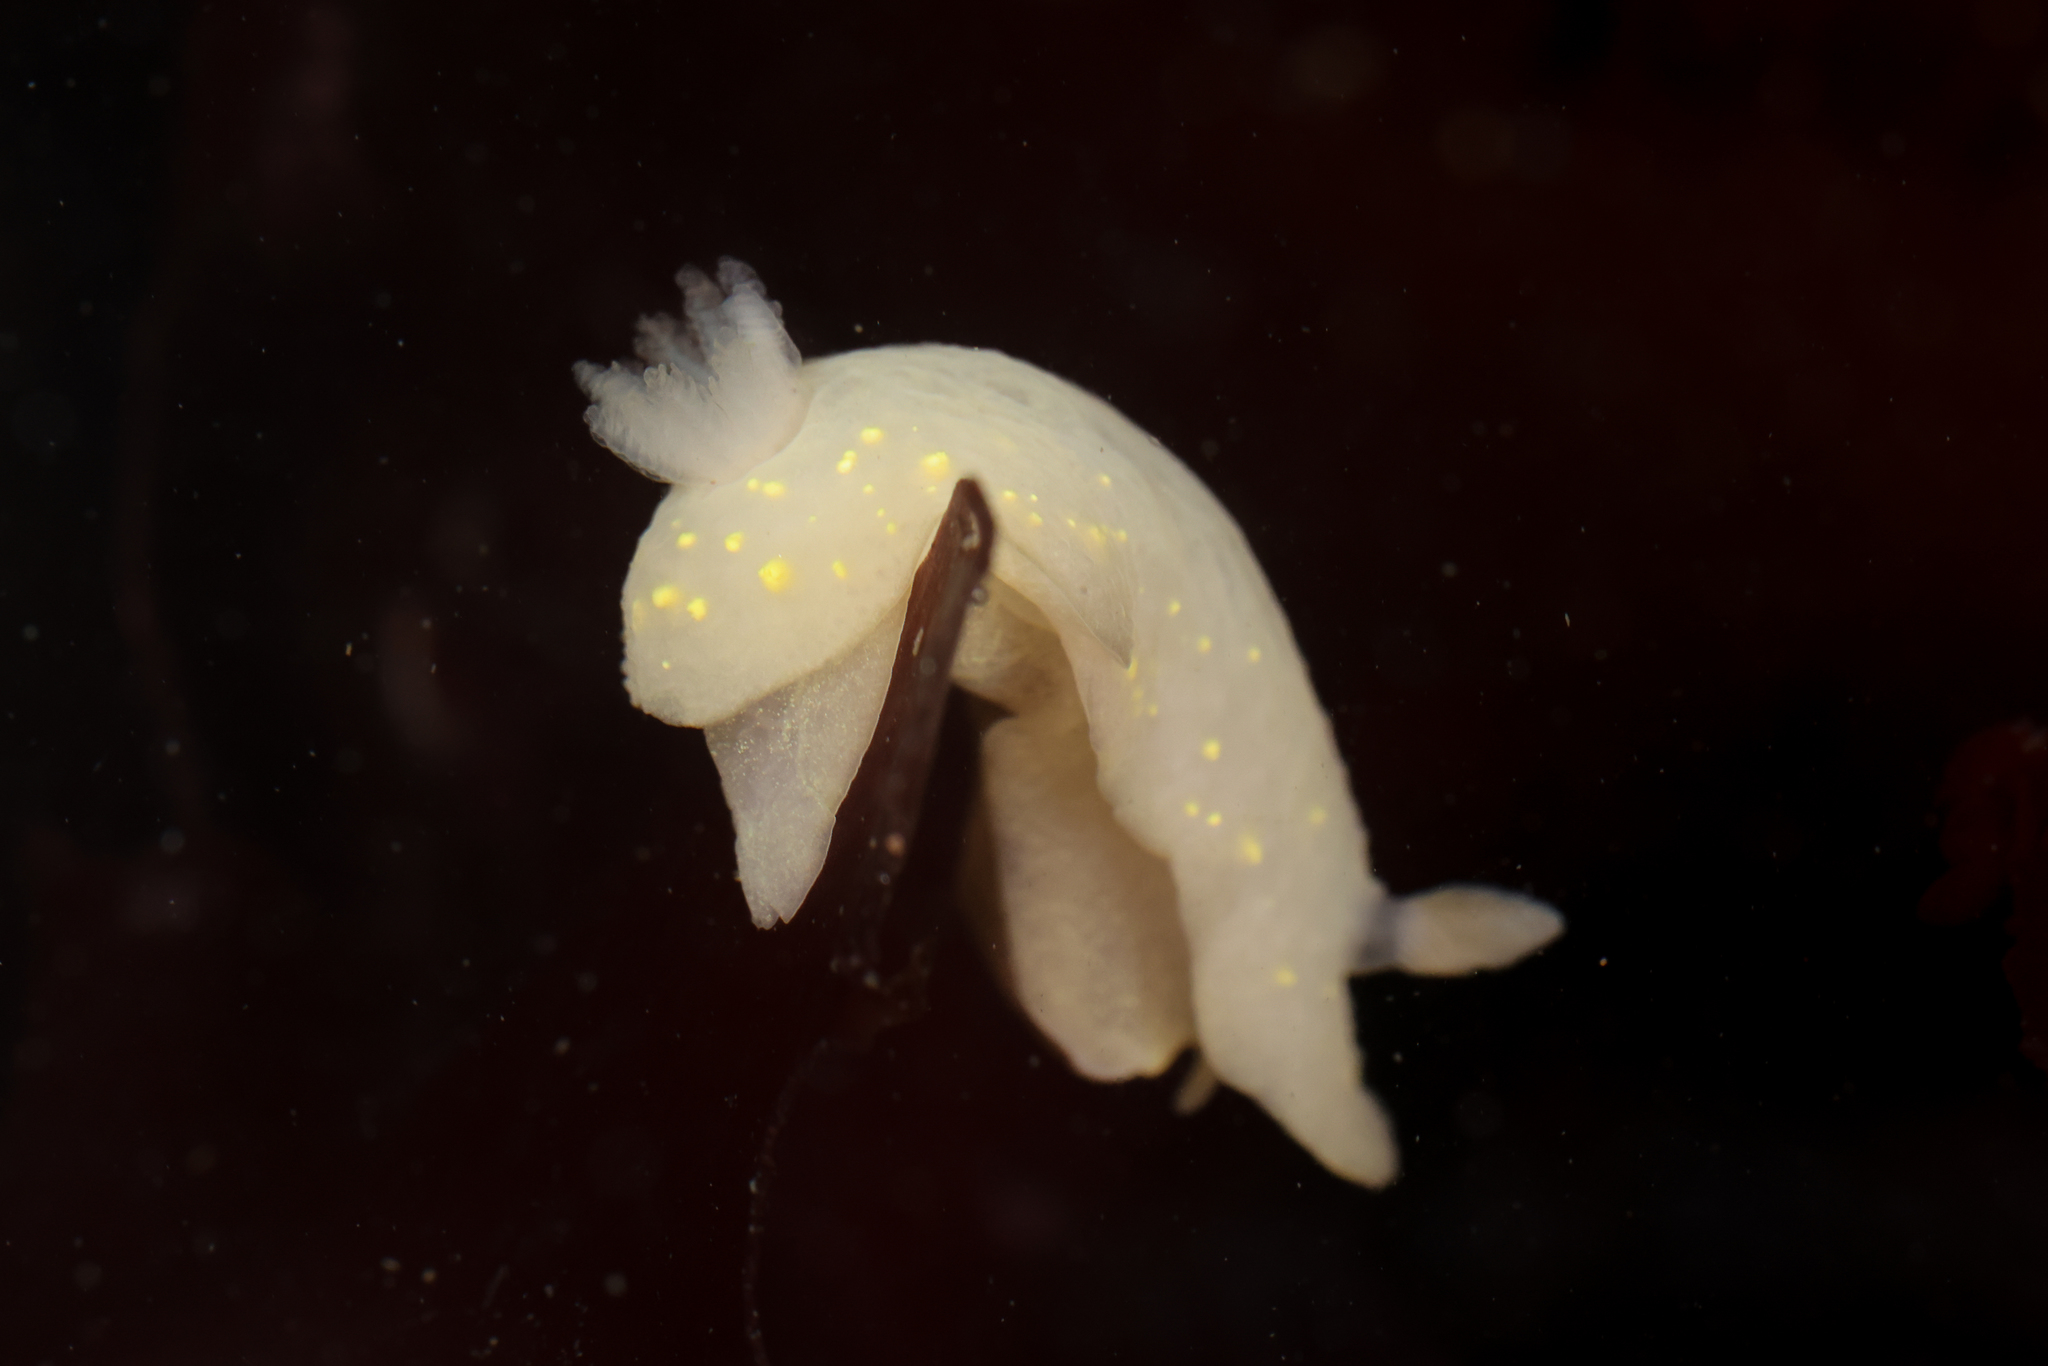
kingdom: Animalia
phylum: Mollusca
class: Gastropoda
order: Nudibranchia
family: Cadlinidae
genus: Cadlina
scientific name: Cadlina modesta
